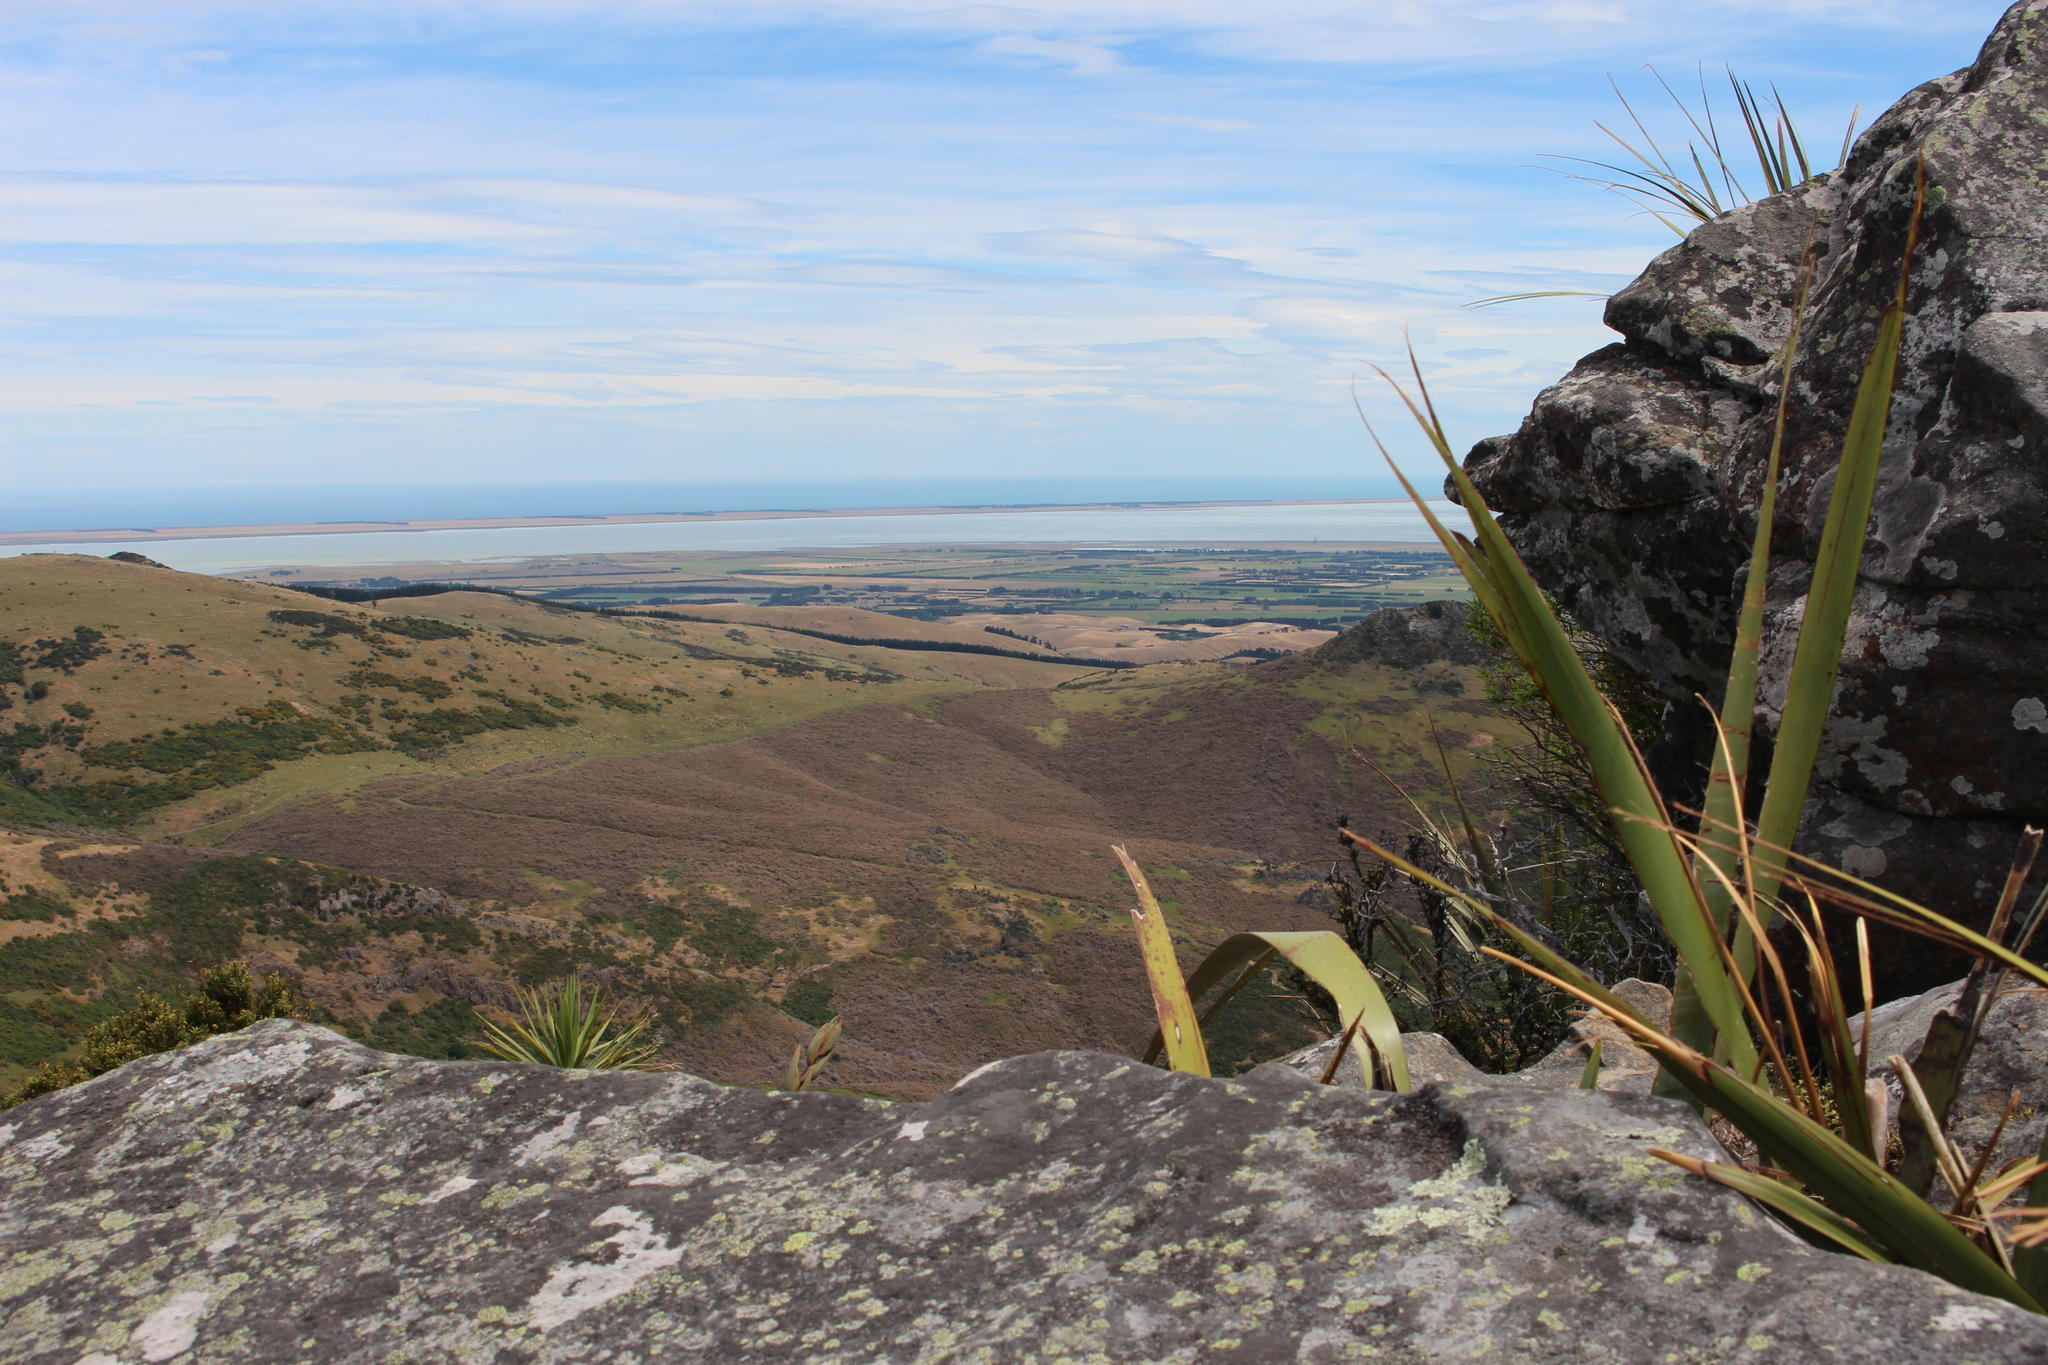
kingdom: Plantae
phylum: Tracheophyta
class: Liliopsida
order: Asparagales
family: Asphodelaceae
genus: Phormium
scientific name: Phormium tenax
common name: New zealand flax
